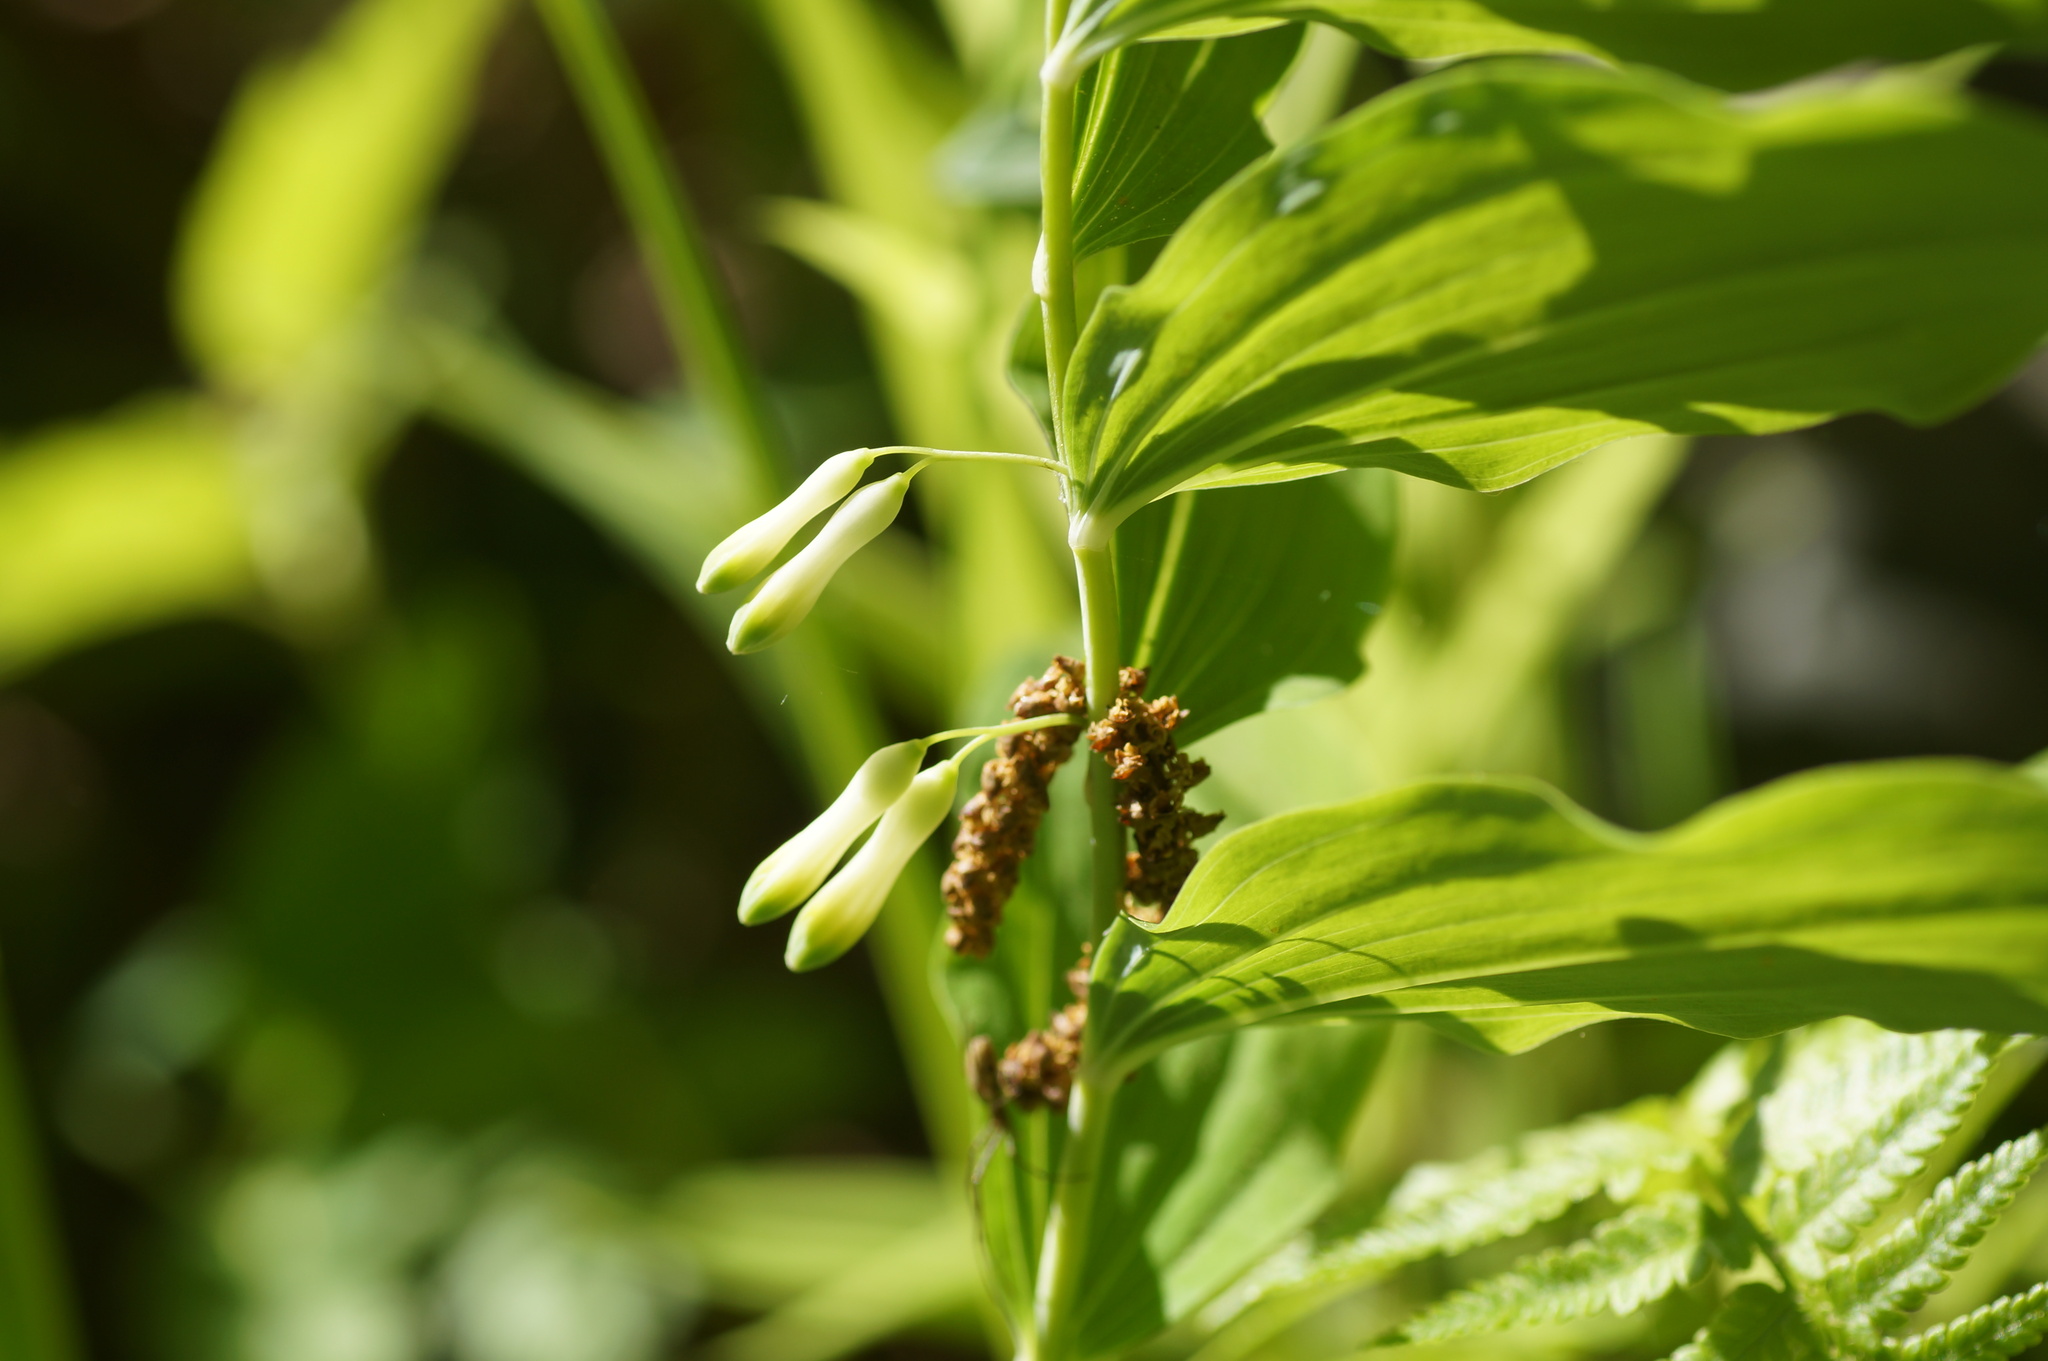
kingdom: Plantae
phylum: Tracheophyta
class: Liliopsida
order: Asparagales
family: Asparagaceae
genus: Polygonatum
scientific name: Polygonatum multiflorum
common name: Solomon's-seal
